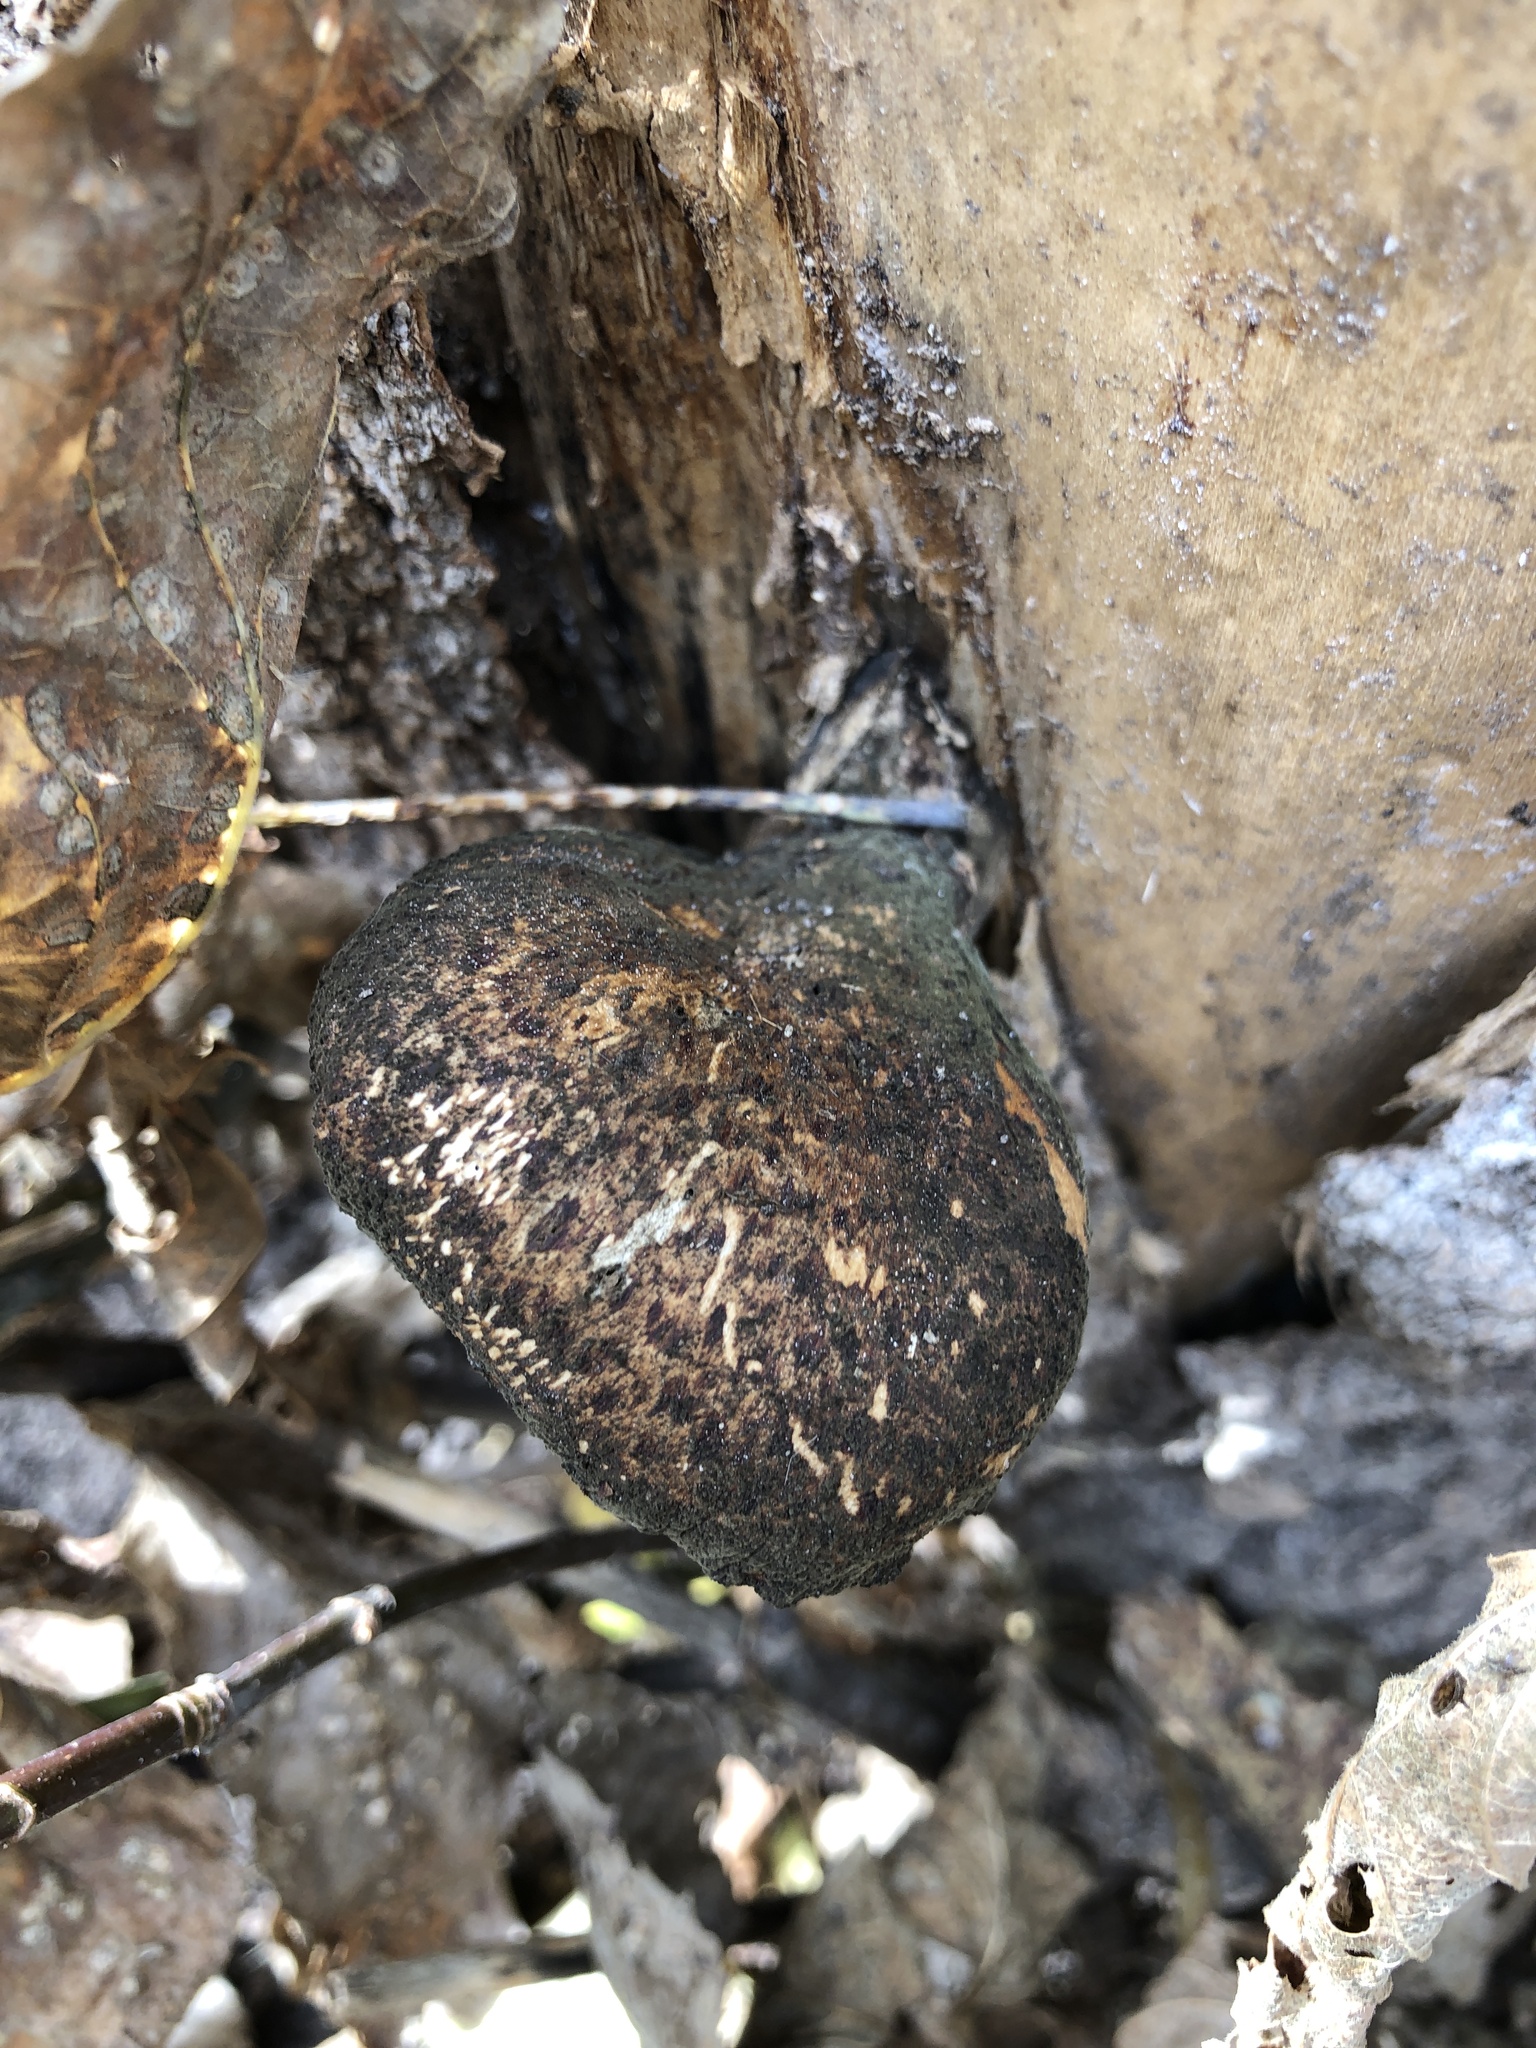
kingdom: Fungi
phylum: Basidiomycota
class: Agaricomycetes
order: Polyporales
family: Polyporaceae
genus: Cerioporus
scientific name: Cerioporus squamosus
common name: Dryad's saddle
